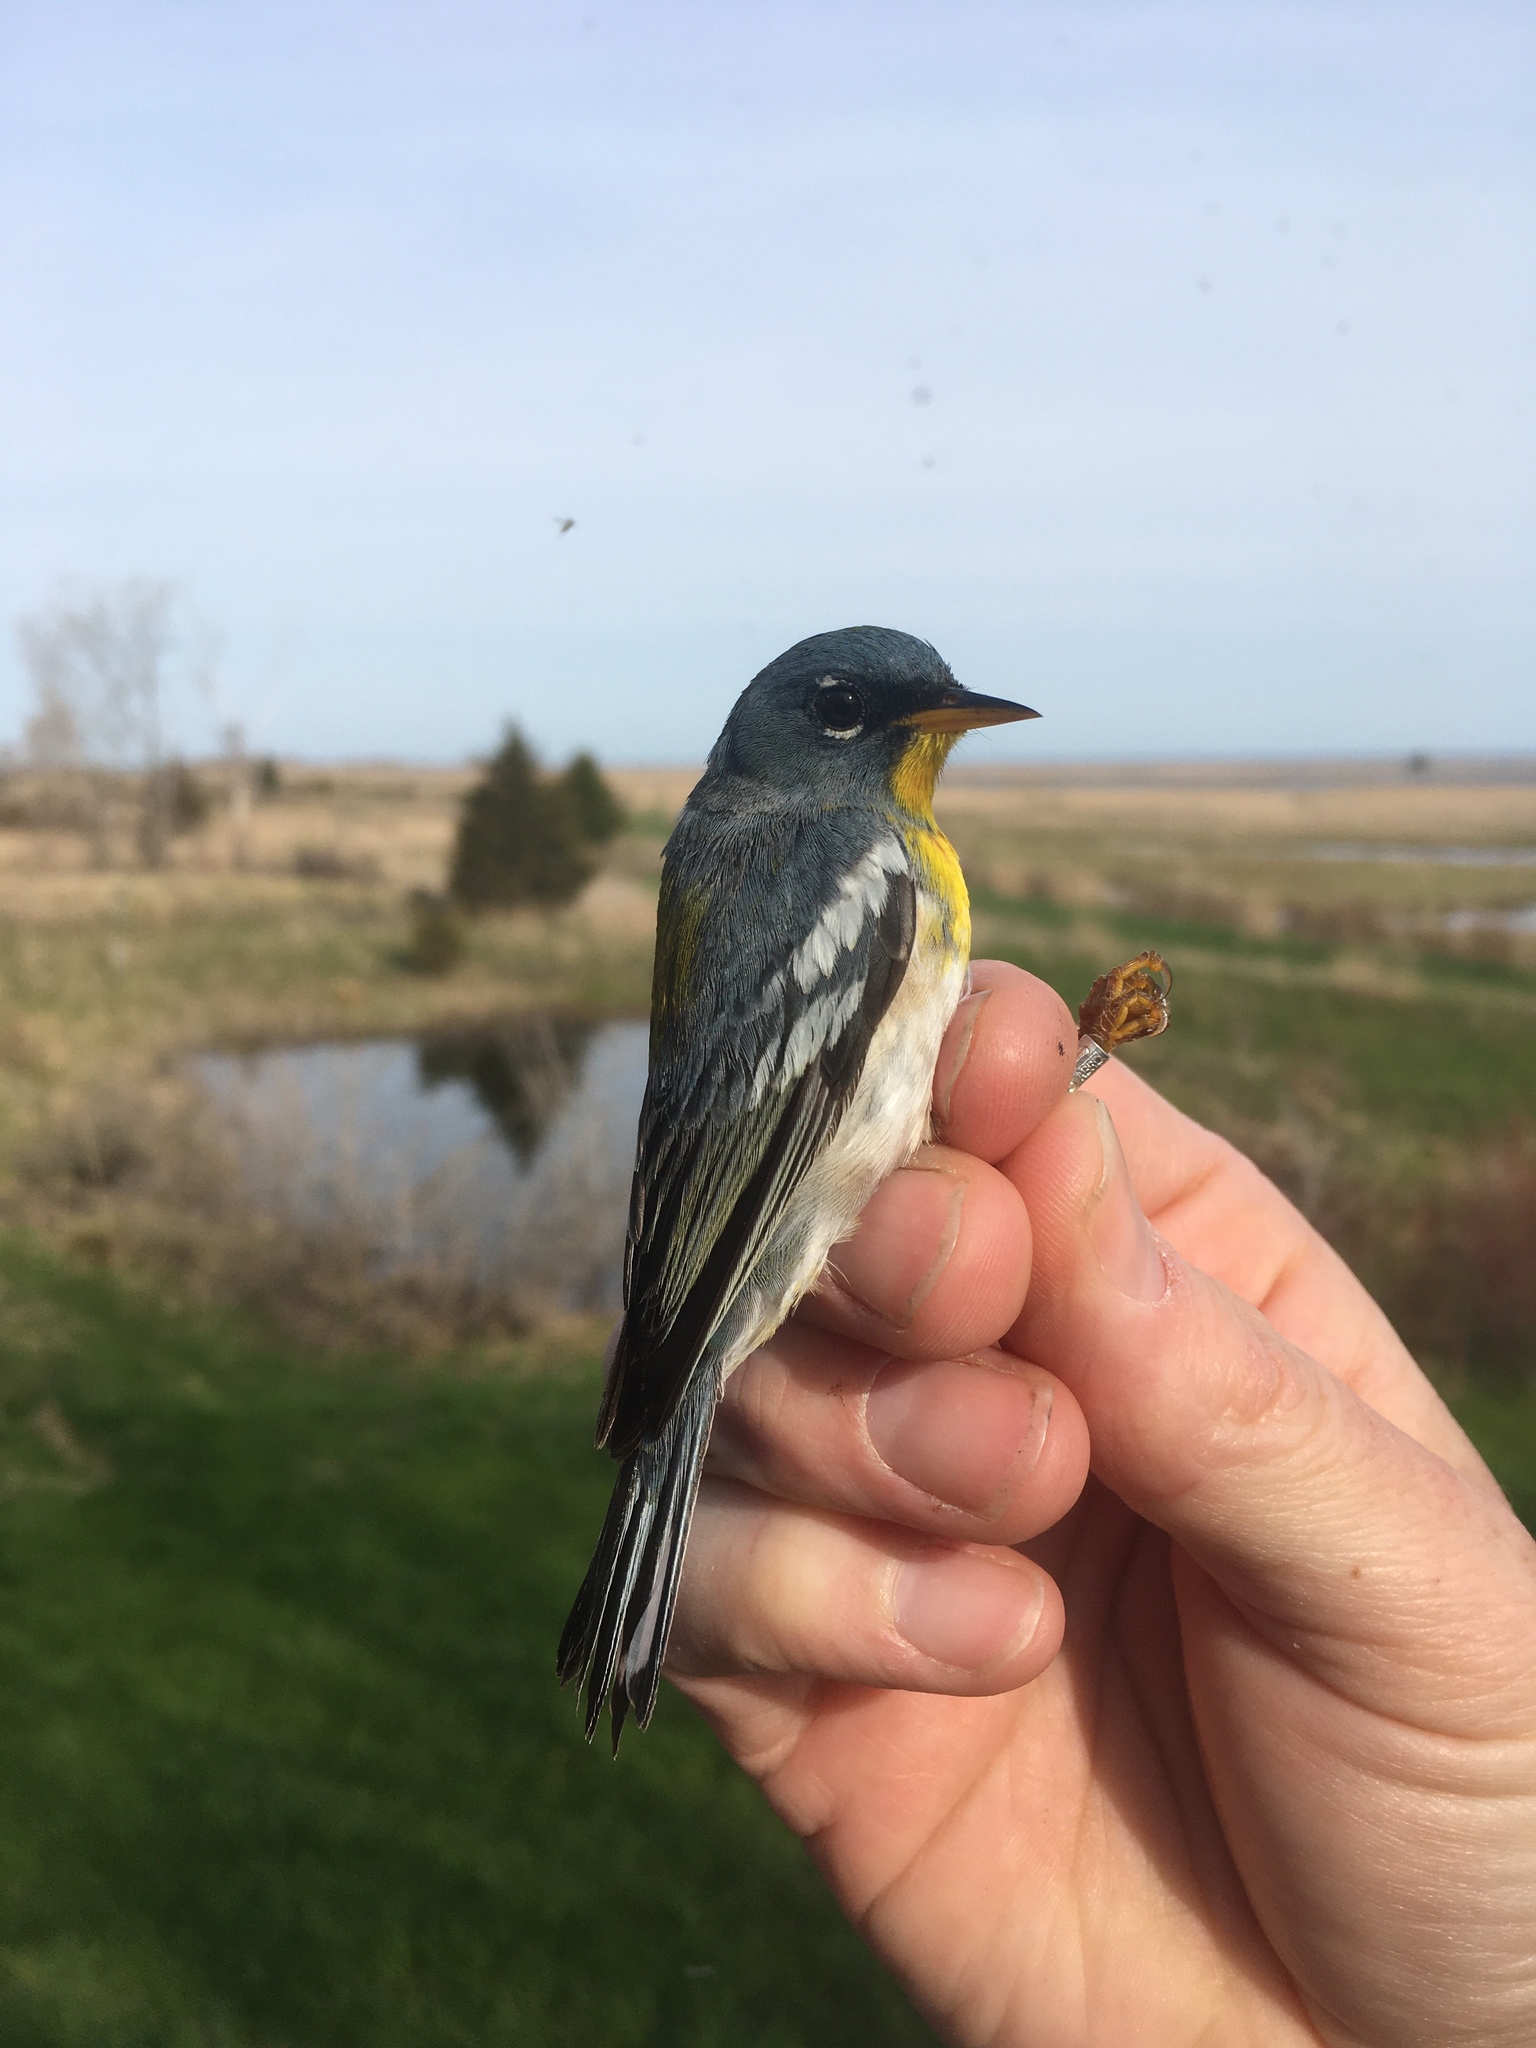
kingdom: Animalia
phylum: Chordata
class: Aves
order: Passeriformes
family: Parulidae
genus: Setophaga
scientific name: Setophaga americana
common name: Northern parula
